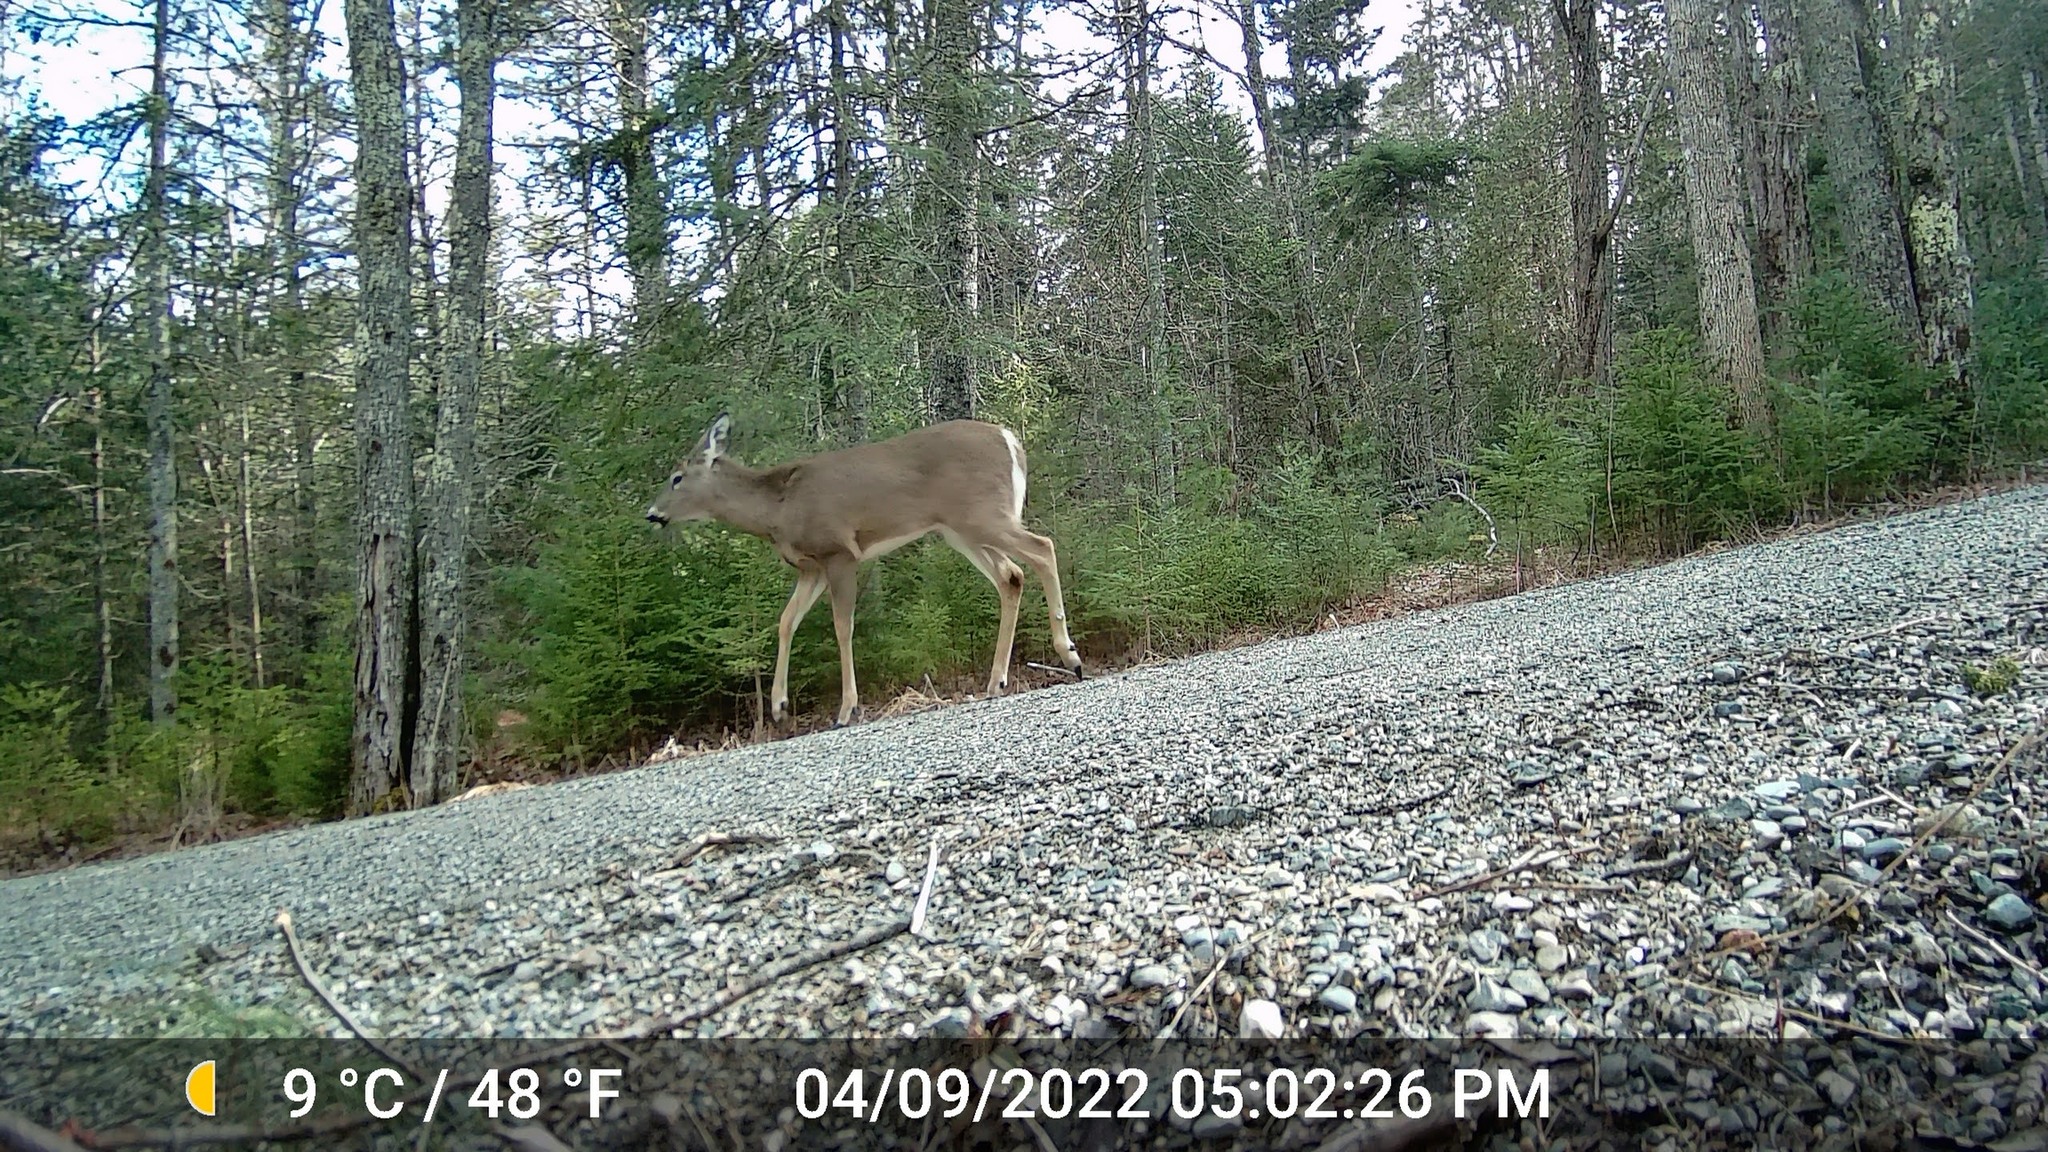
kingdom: Animalia
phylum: Chordata
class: Mammalia
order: Artiodactyla
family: Cervidae
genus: Odocoileus
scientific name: Odocoileus virginianus
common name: White-tailed deer
